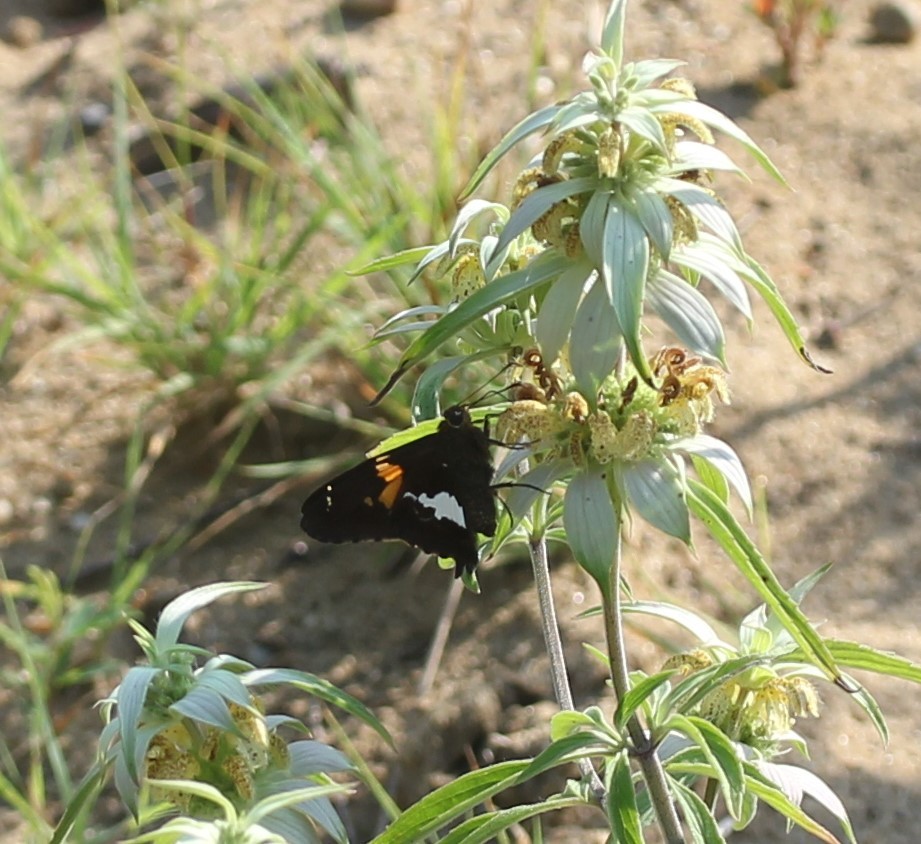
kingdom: Animalia
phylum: Arthropoda
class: Insecta
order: Lepidoptera
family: Hesperiidae
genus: Epargyreus
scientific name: Epargyreus clarus
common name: Silver-spotted skipper
